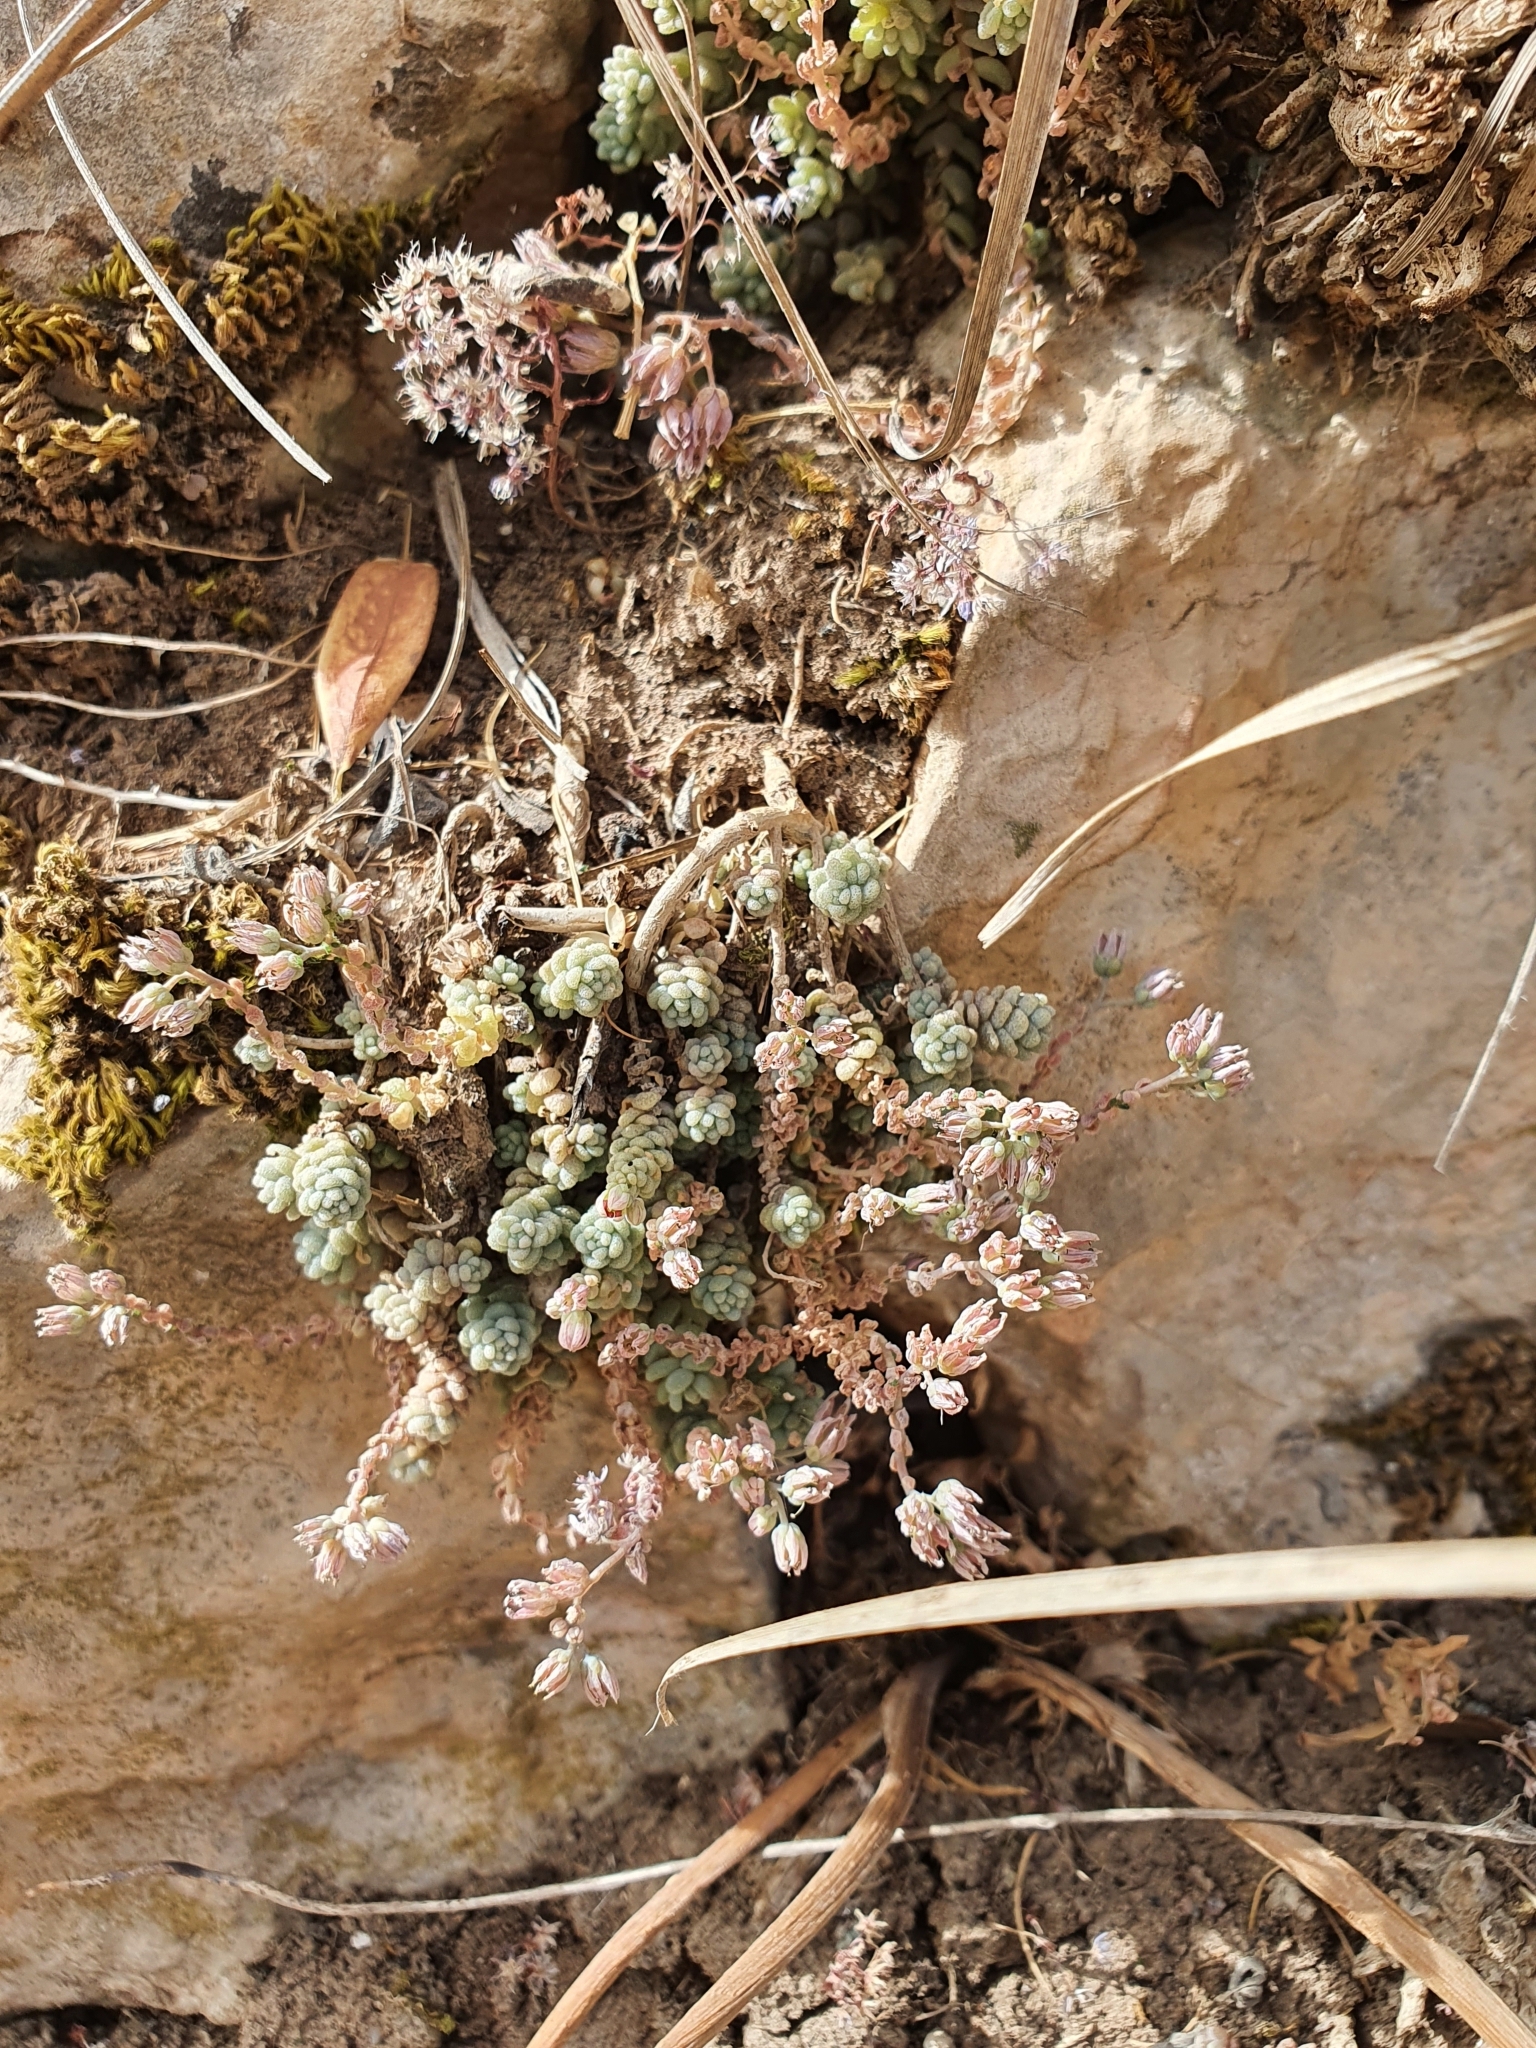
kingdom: Plantae
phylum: Tracheophyta
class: Magnoliopsida
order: Saxifragales
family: Crassulaceae
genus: Sedum
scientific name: Sedum dasyphyllum
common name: Thick-leaf stonecrop
